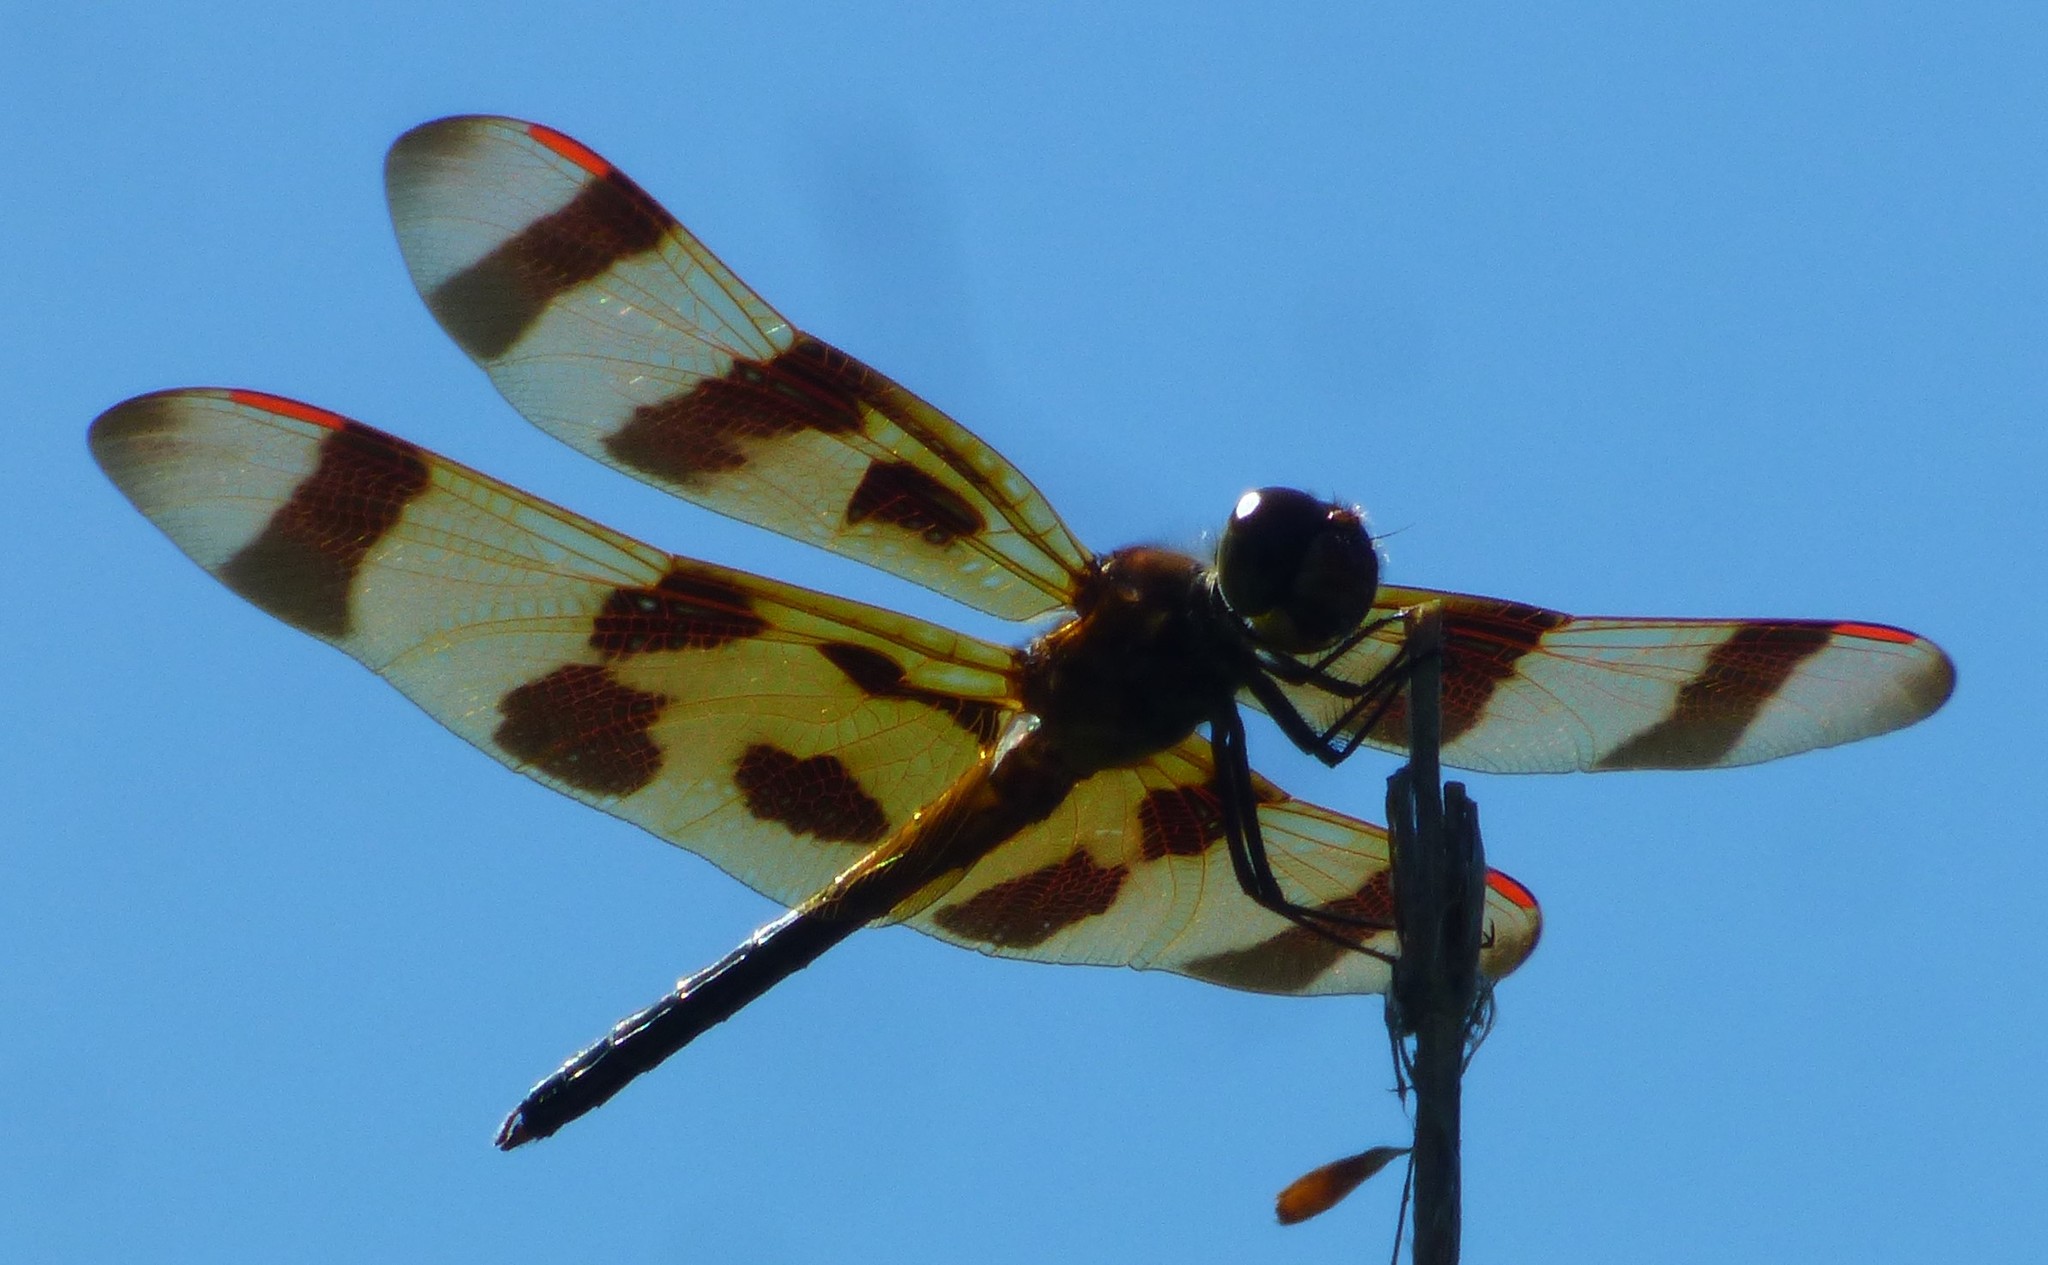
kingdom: Animalia
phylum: Arthropoda
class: Insecta
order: Odonata
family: Libellulidae
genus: Celithemis
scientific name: Celithemis eponina
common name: Halloween pennant
